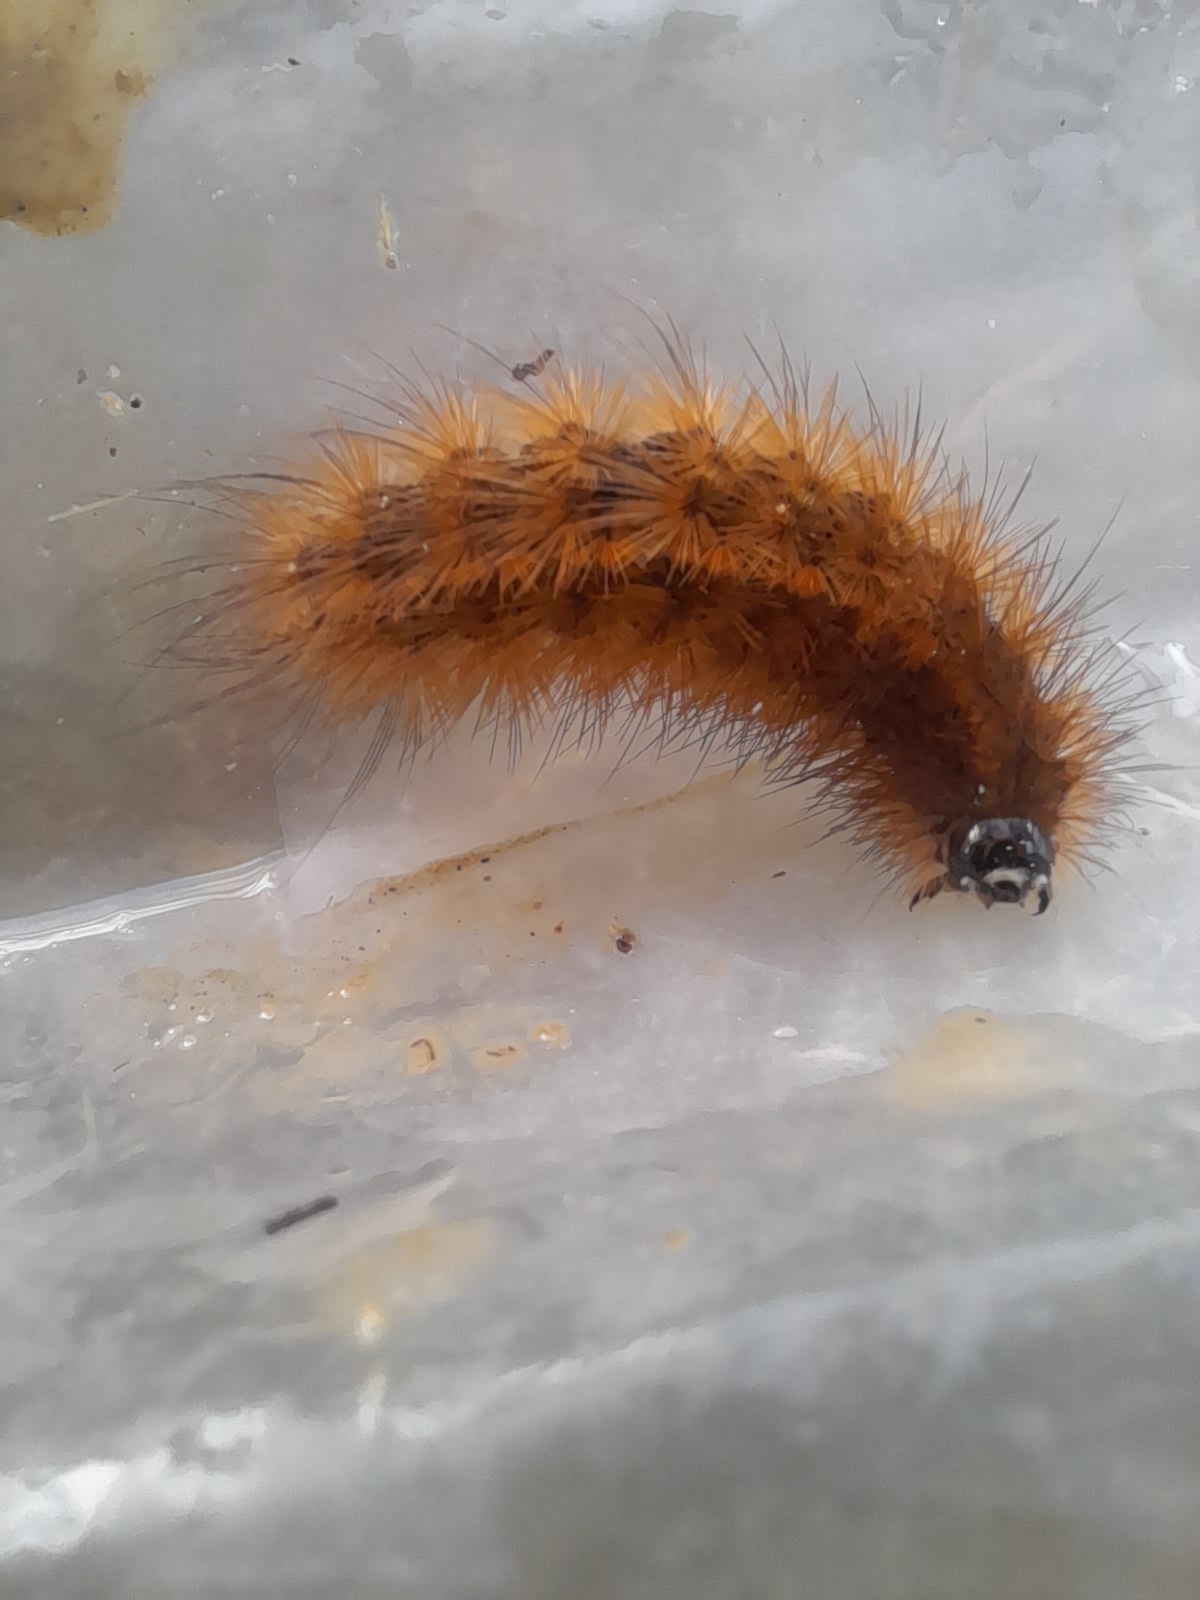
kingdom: Animalia
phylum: Arthropoda
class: Insecta
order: Lepidoptera
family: Erebidae
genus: Phragmatobia
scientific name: Phragmatobia fuliginosa
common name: Ruby tiger
